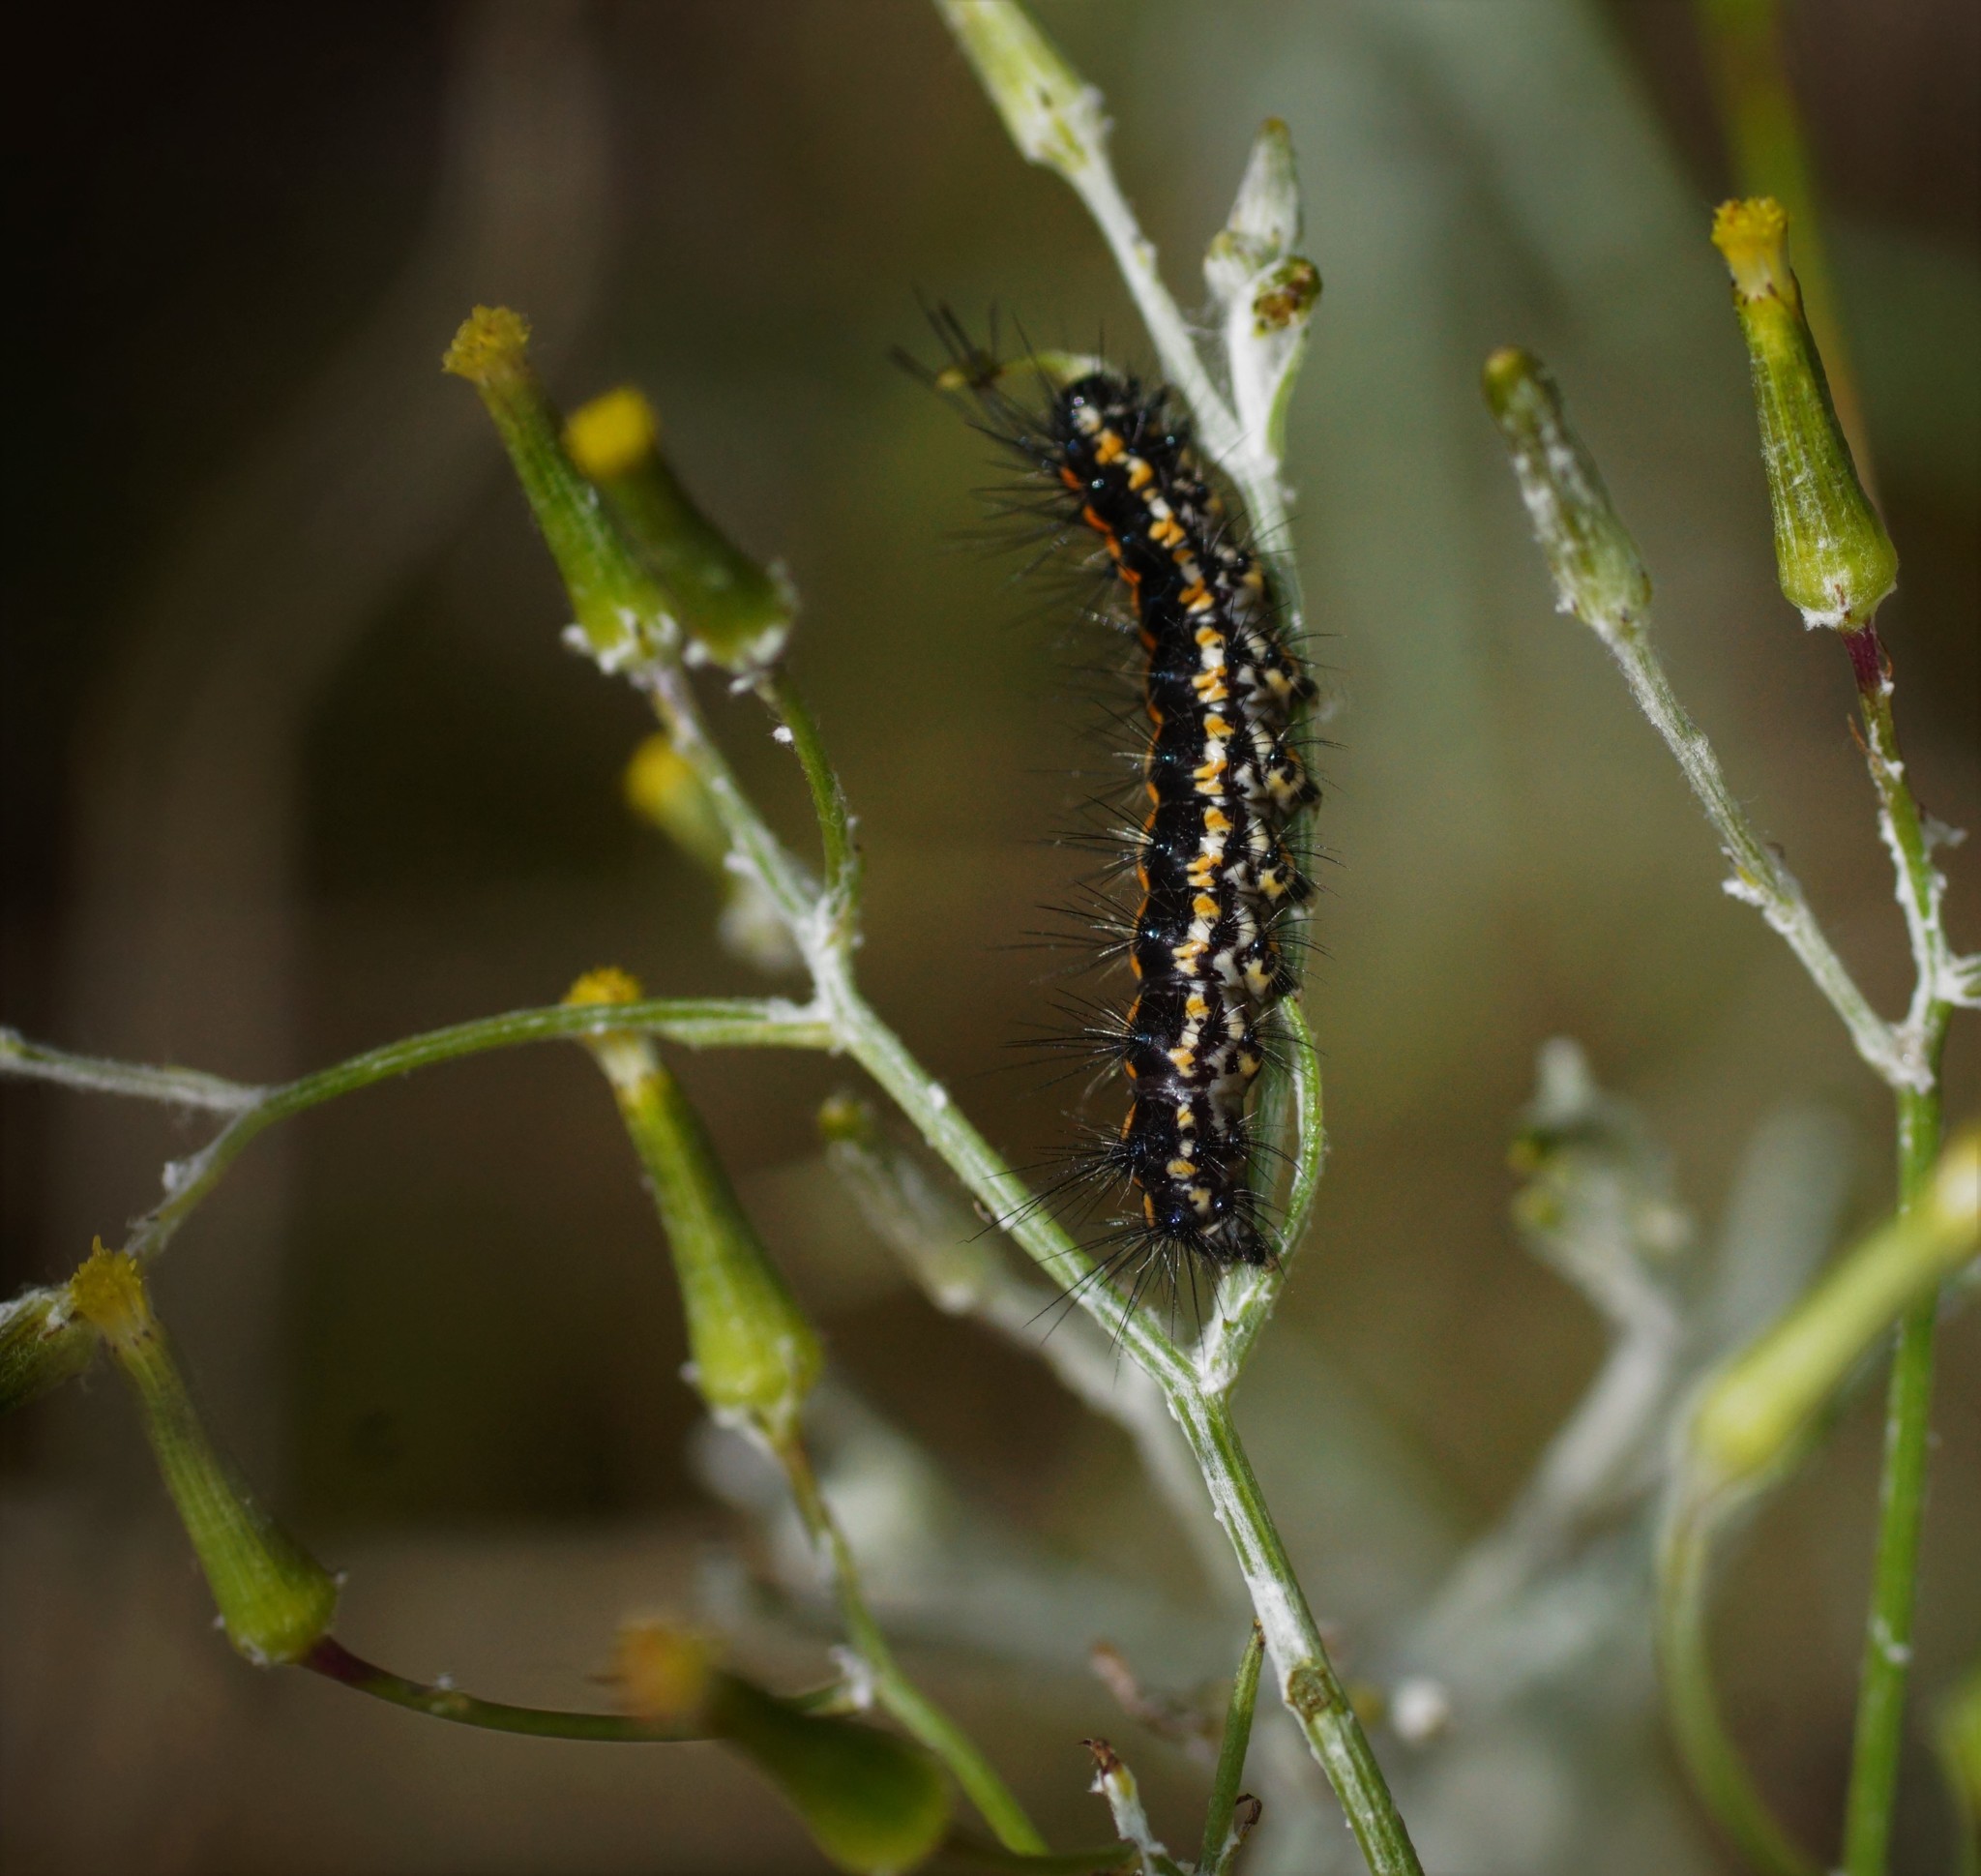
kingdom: Animalia
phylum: Arthropoda
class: Insecta
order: Lepidoptera
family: Erebidae
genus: Nyctemera
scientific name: Nyctemera amicus
